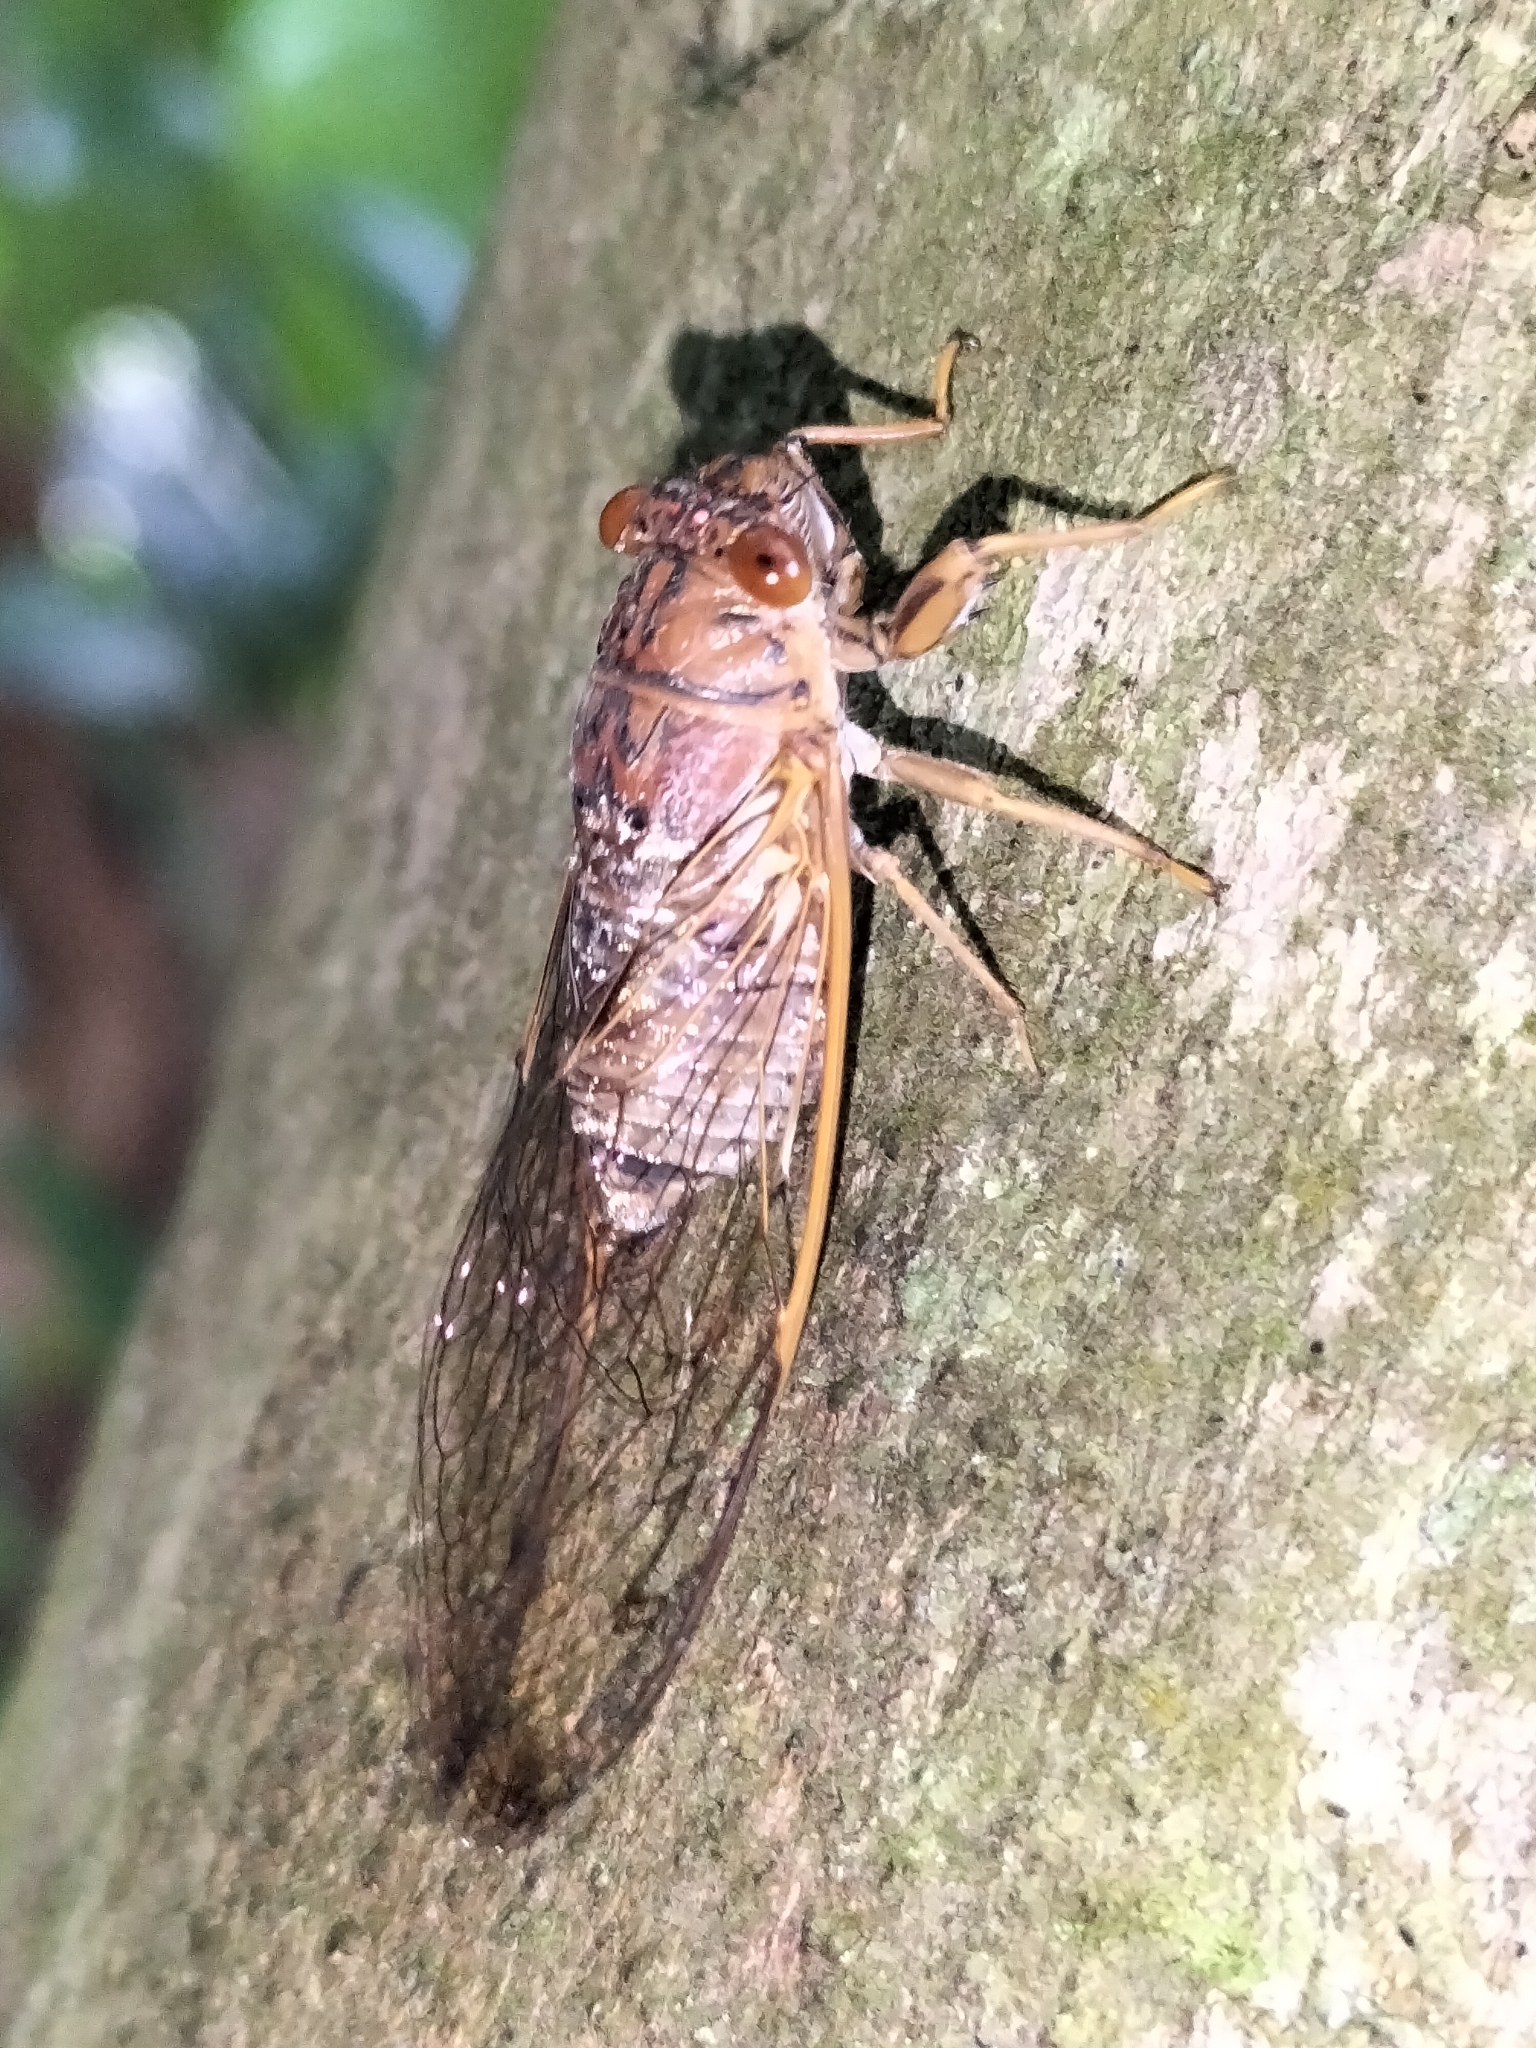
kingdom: Animalia
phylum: Arthropoda
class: Insecta
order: Hemiptera
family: Cicadidae
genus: Tamasa
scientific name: Tamasa doddi
